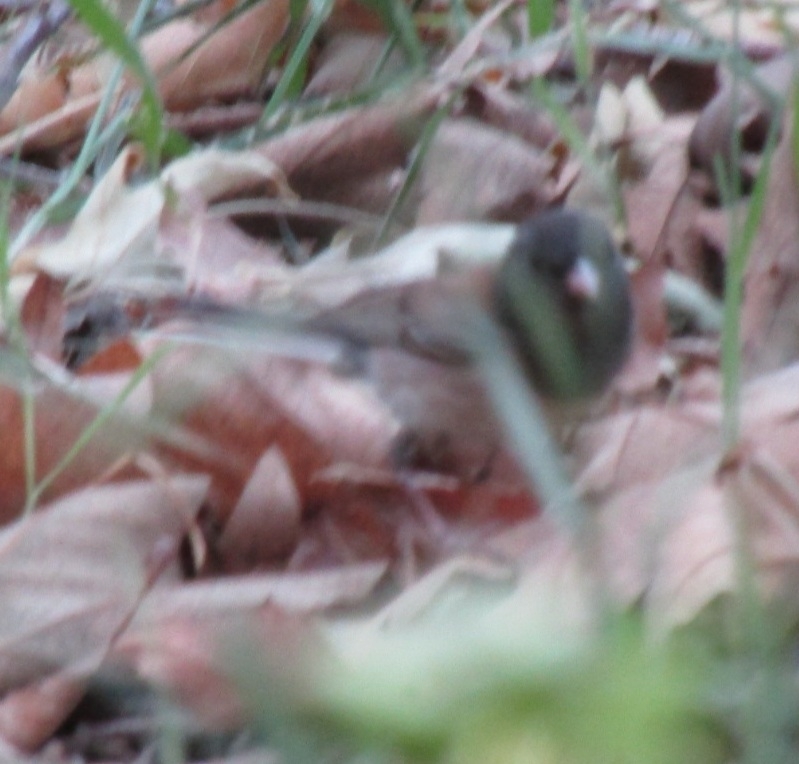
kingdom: Animalia
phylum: Chordata
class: Aves
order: Passeriformes
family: Passerellidae
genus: Junco
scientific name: Junco hyemalis
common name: Dark-eyed junco
